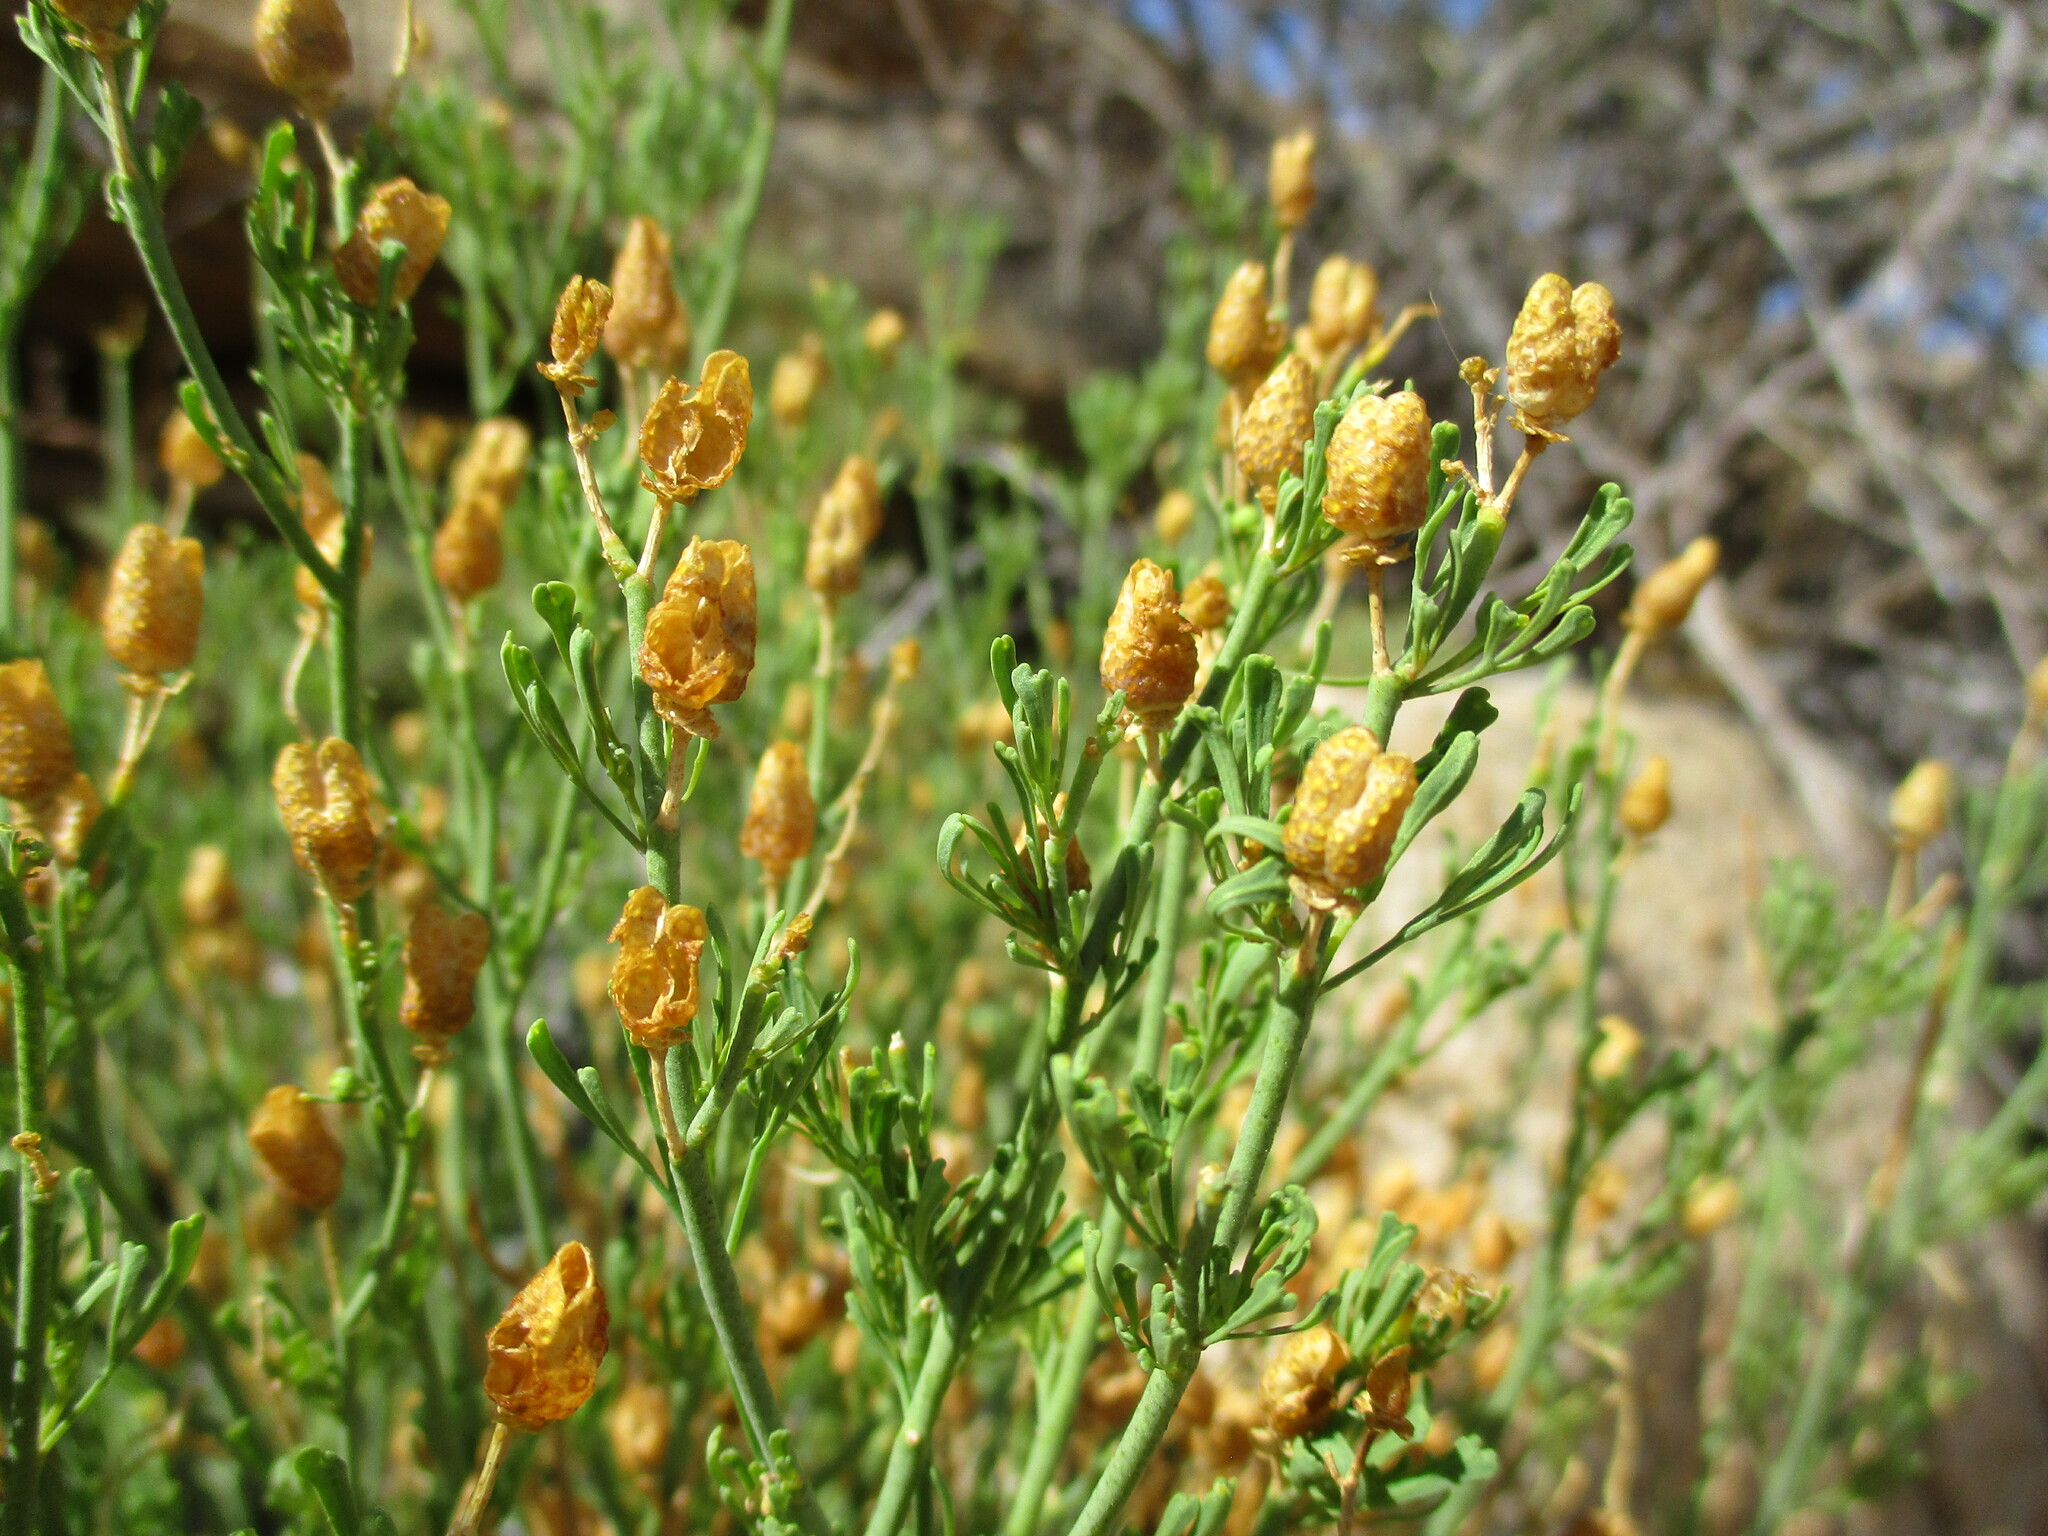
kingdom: Plantae
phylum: Tracheophyta
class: Magnoliopsida
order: Sapindales
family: Rutaceae
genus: Thamnosma
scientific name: Thamnosma africana
